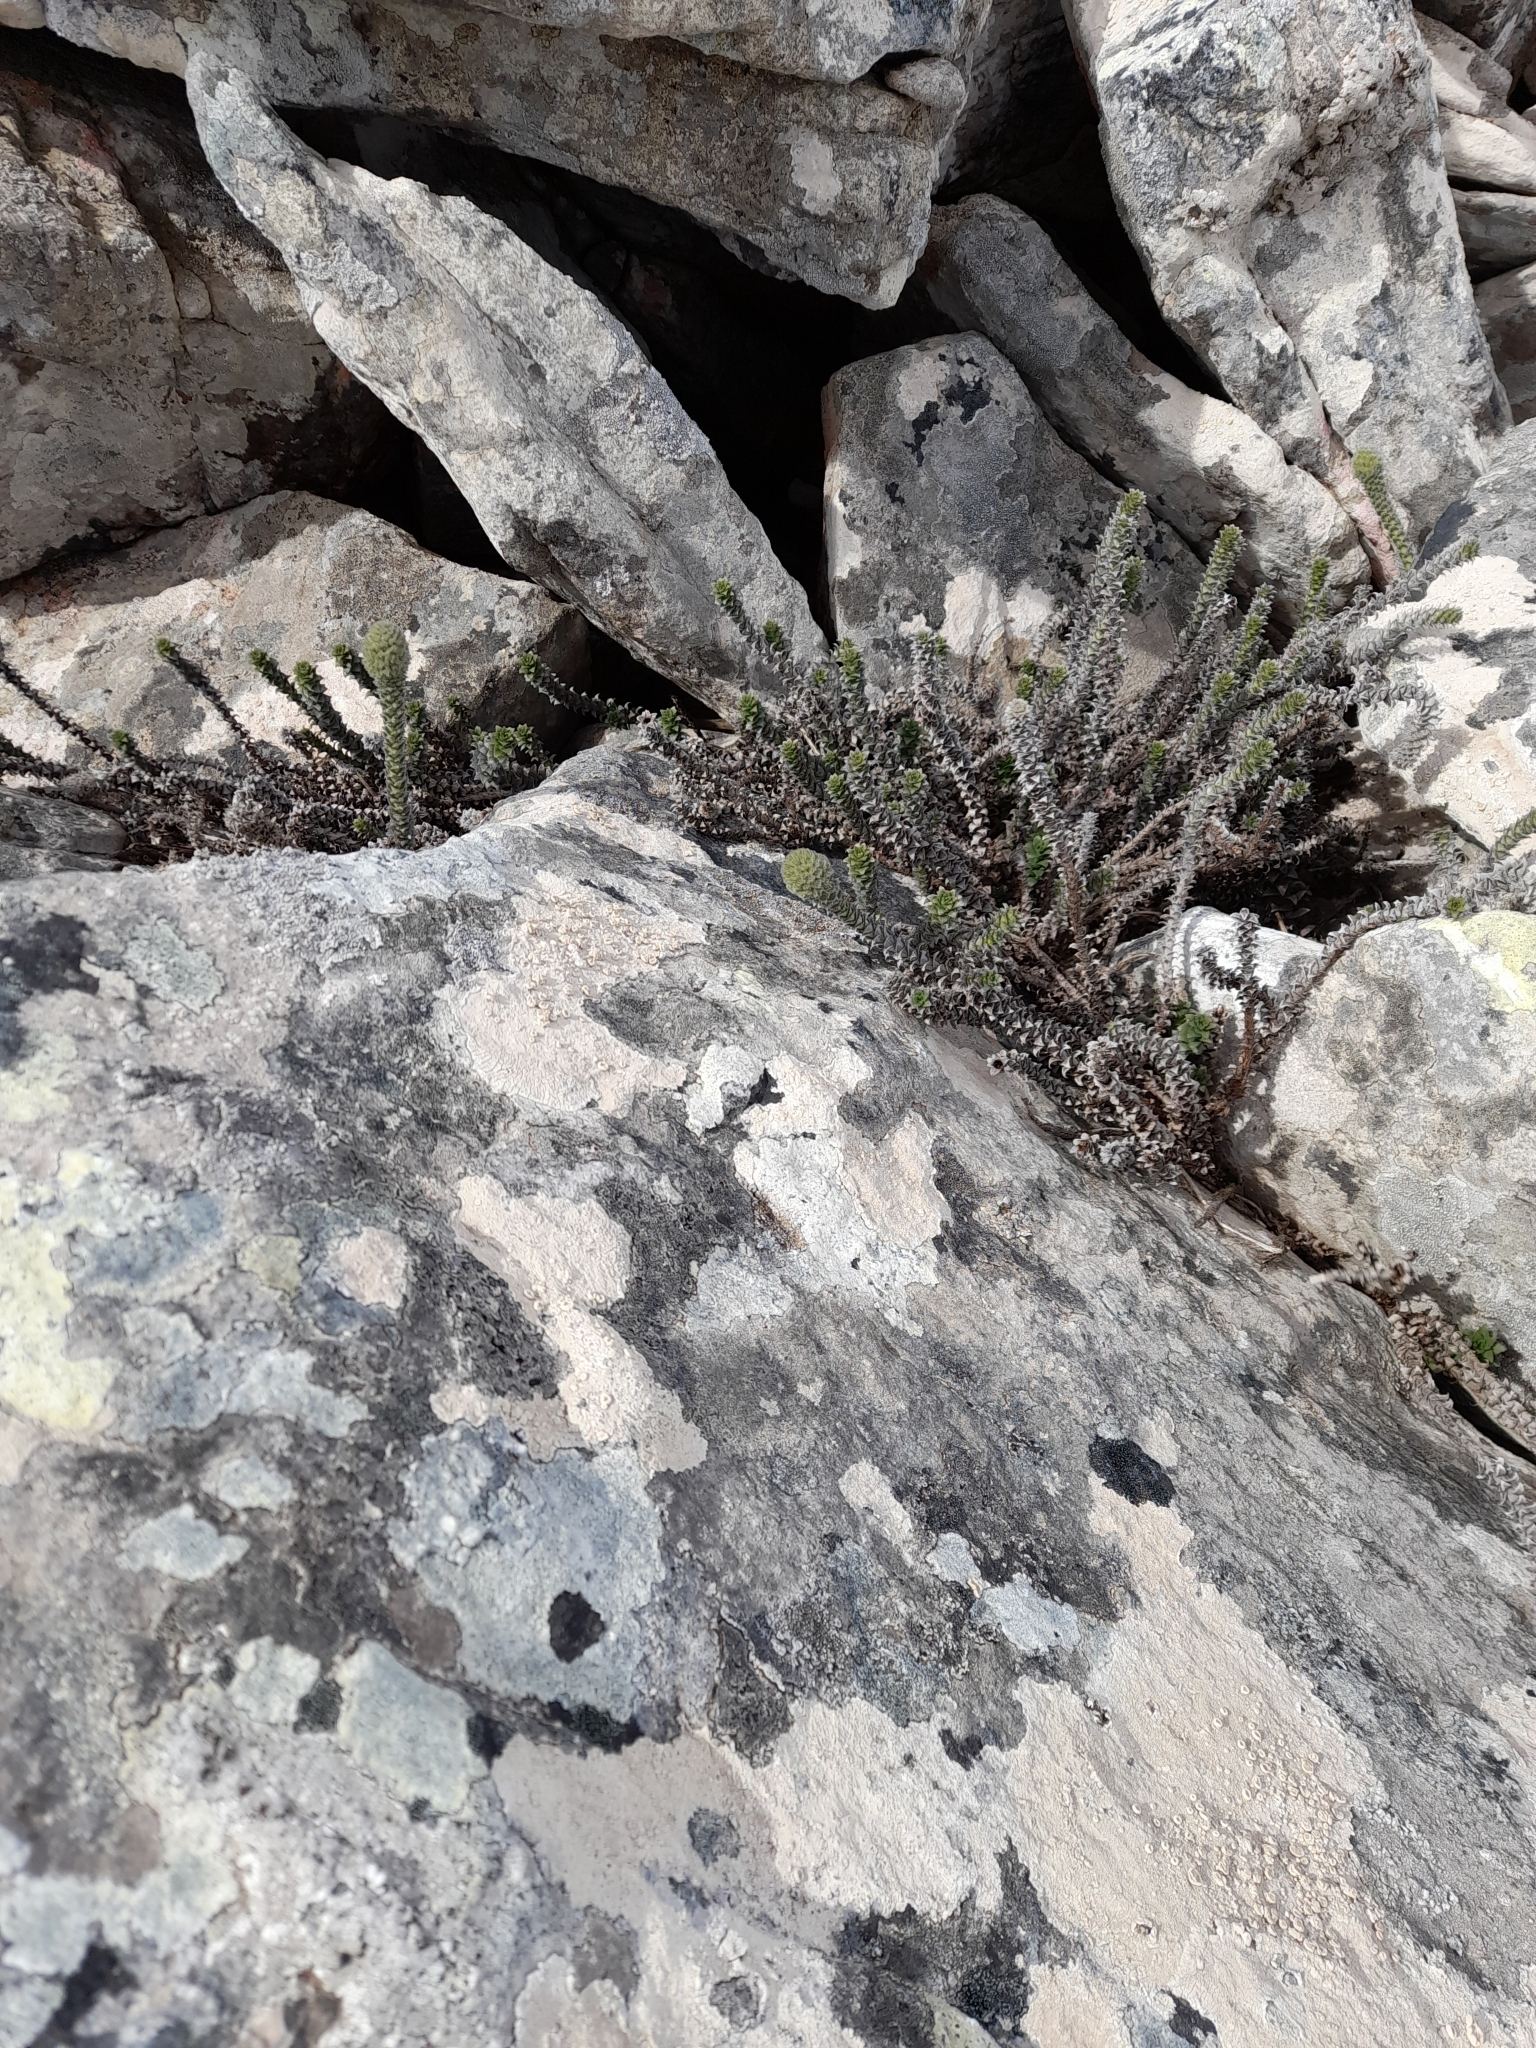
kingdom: Plantae
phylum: Tracheophyta
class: Magnoliopsida
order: Asterales
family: Asteraceae
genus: Nassauvia
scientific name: Nassauvia serpens
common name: Snakeplant
